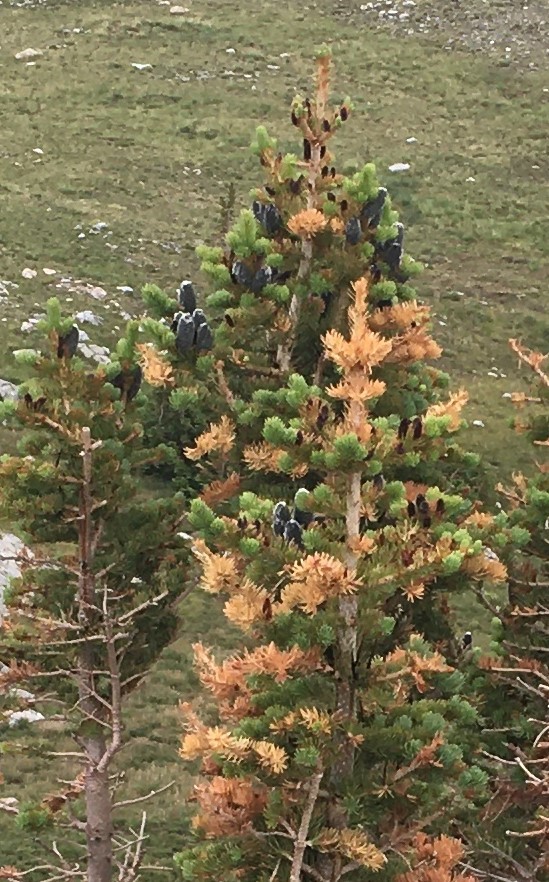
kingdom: Plantae
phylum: Tracheophyta
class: Pinopsida
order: Pinales
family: Pinaceae
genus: Abies
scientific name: Abies lasiocarpa
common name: Subalpine fir
